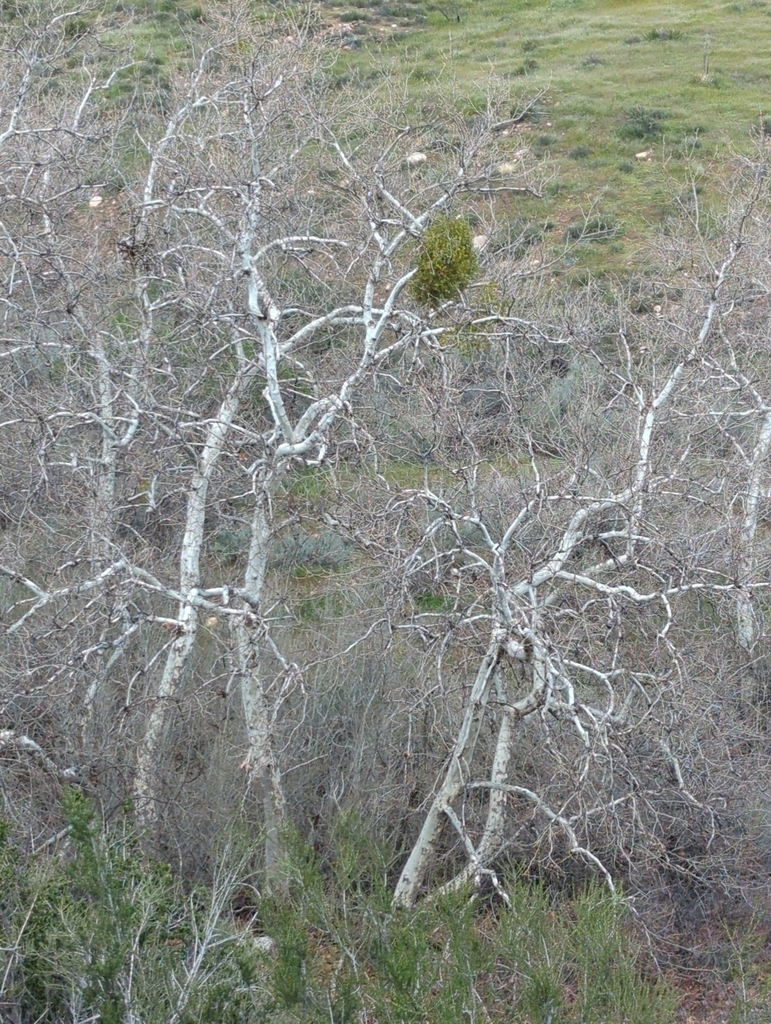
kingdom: Plantae
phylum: Tracheophyta
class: Magnoliopsida
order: Proteales
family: Platanaceae
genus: Platanus
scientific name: Platanus racemosa
